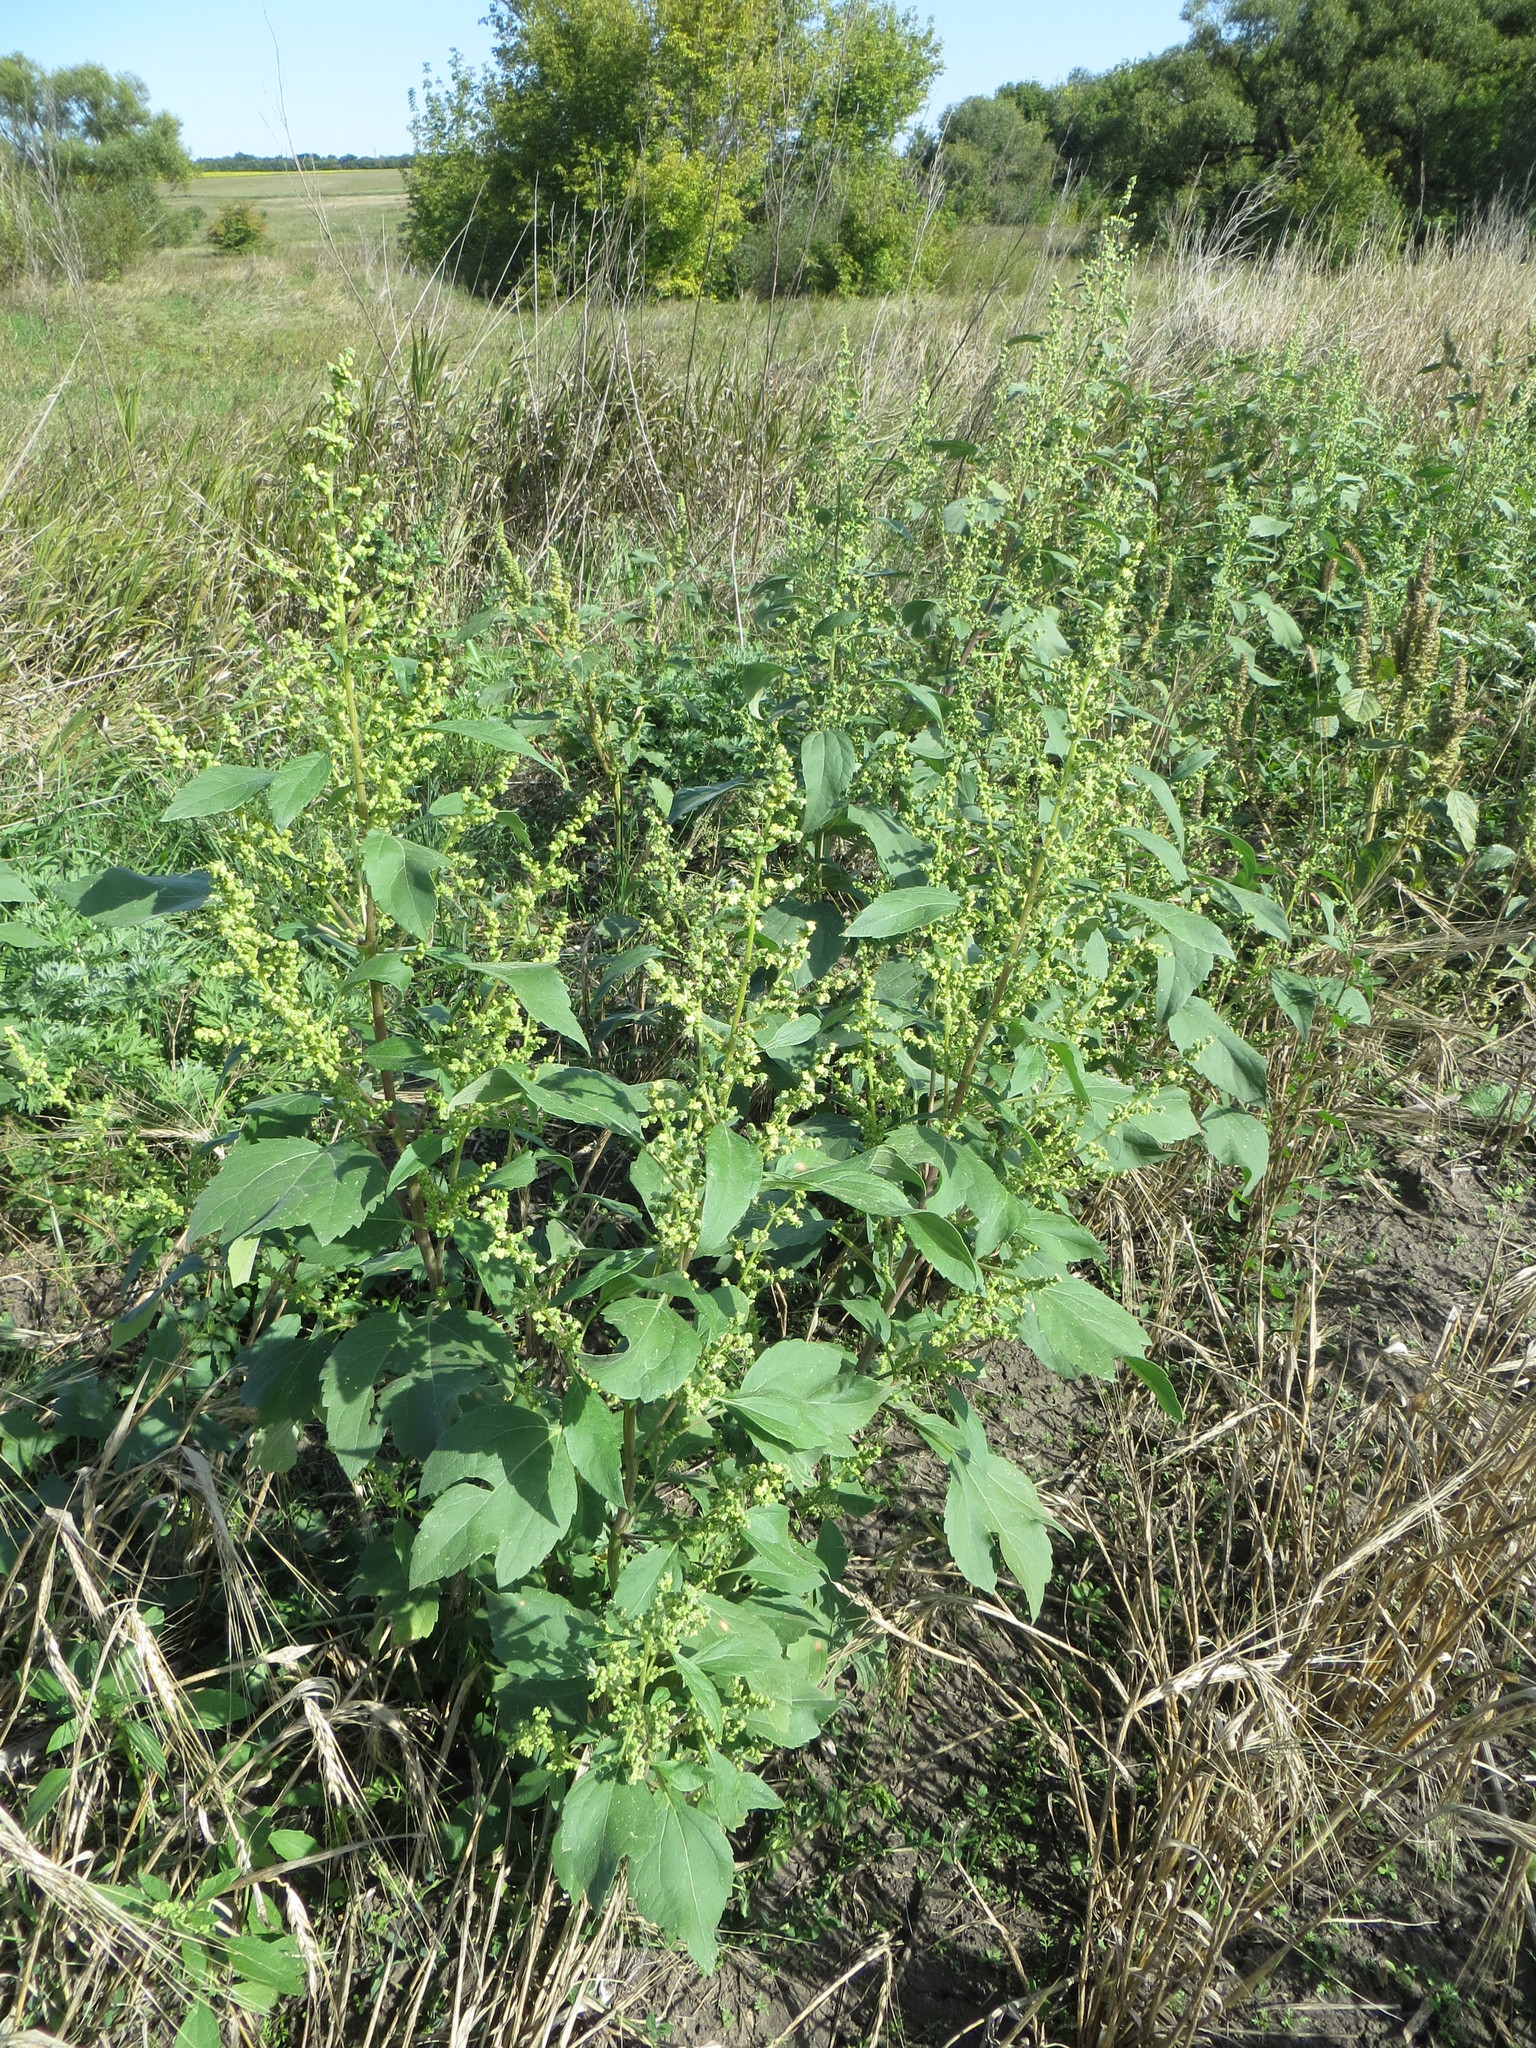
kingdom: Plantae
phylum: Tracheophyta
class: Magnoliopsida
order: Asterales
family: Asteraceae
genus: Cyclachaena
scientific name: Cyclachaena xanthiifolia
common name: Giant sumpweed
